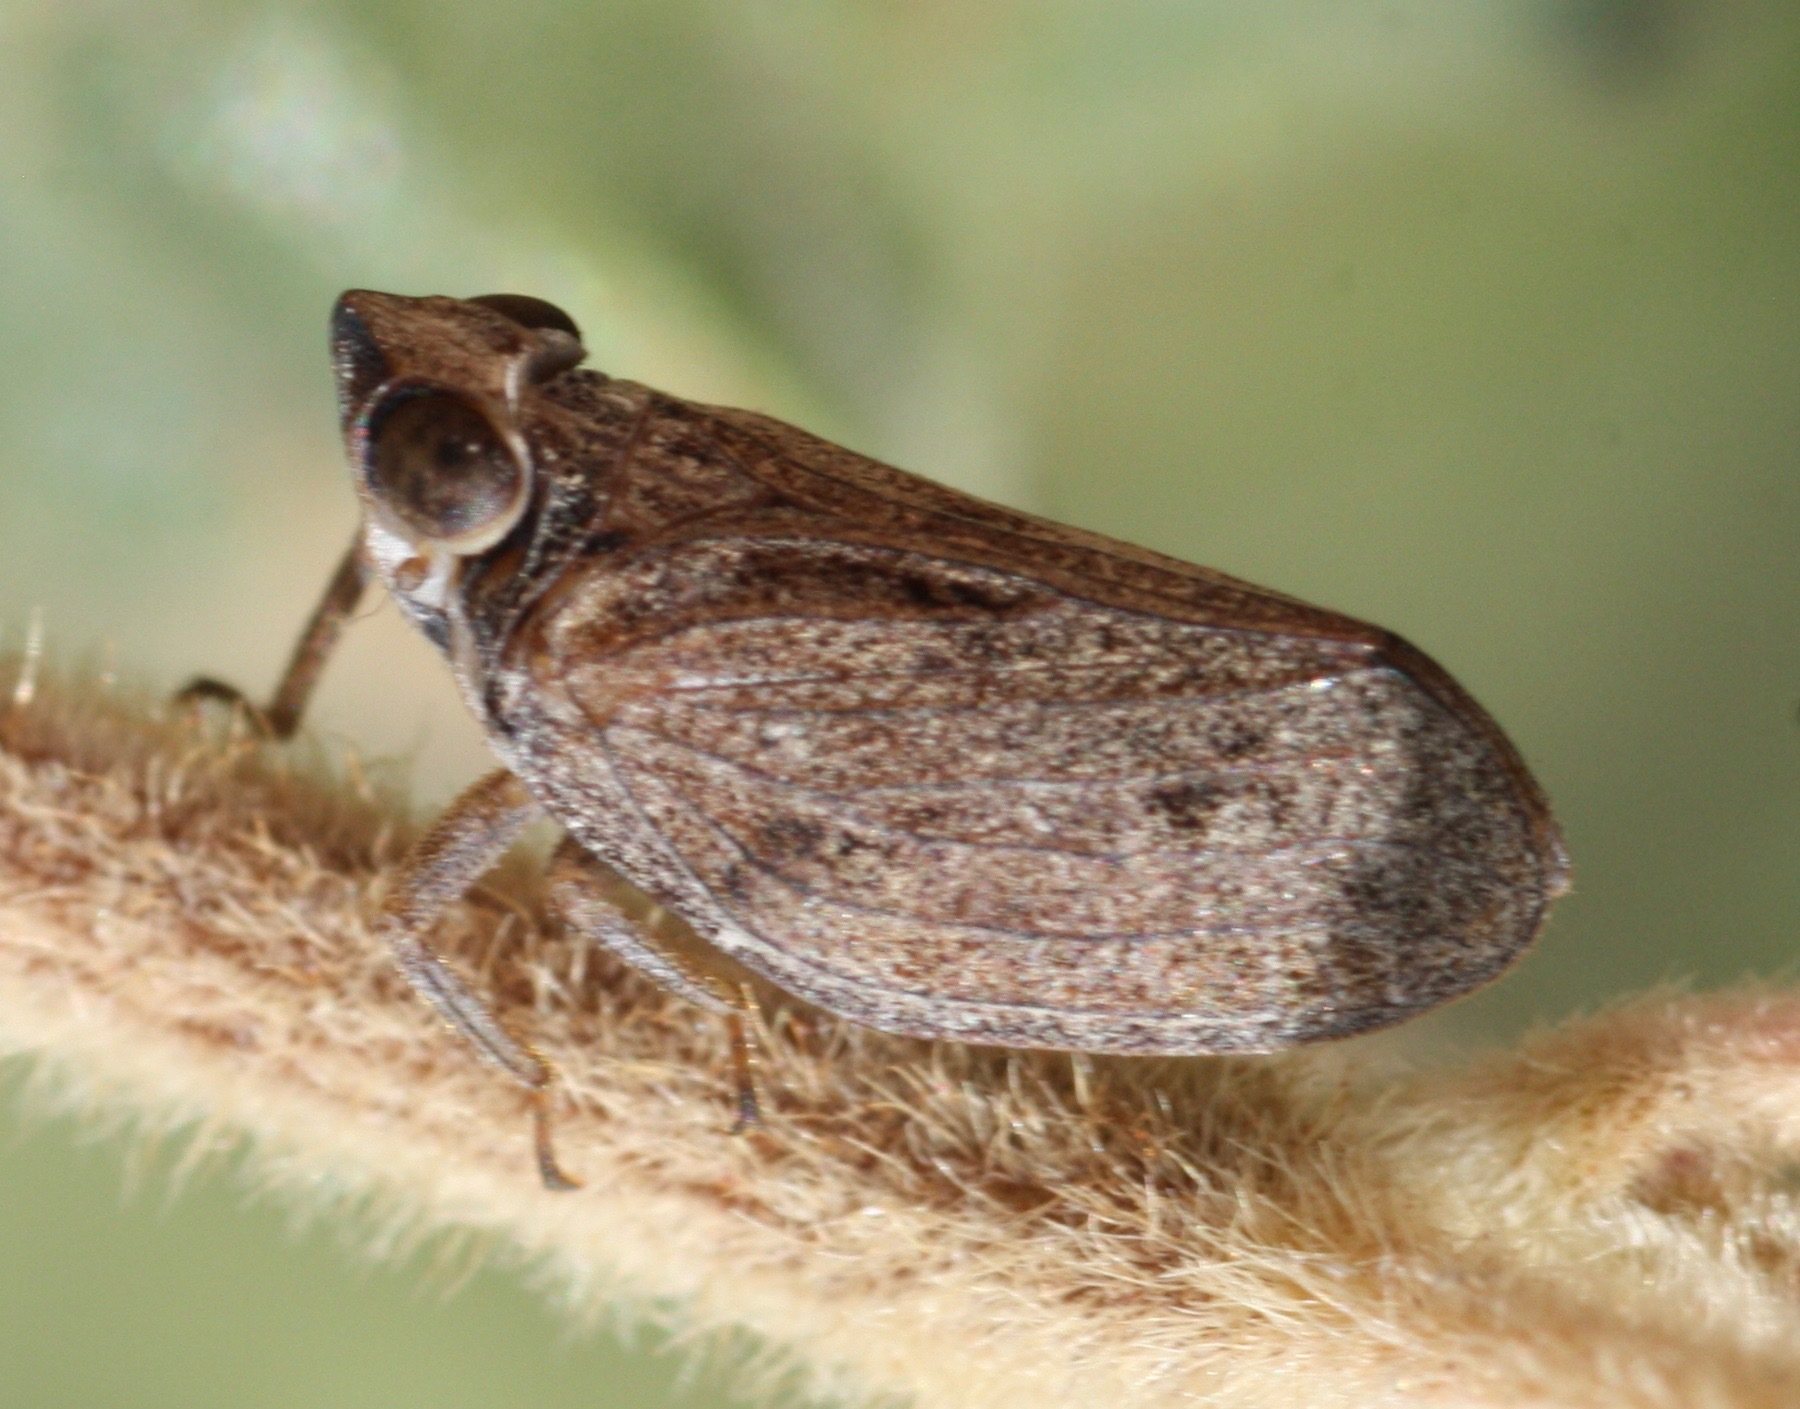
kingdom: Animalia
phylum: Arthropoda
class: Insecta
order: Hemiptera
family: Issidae
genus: Fowlerium
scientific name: Fowlerium productum
